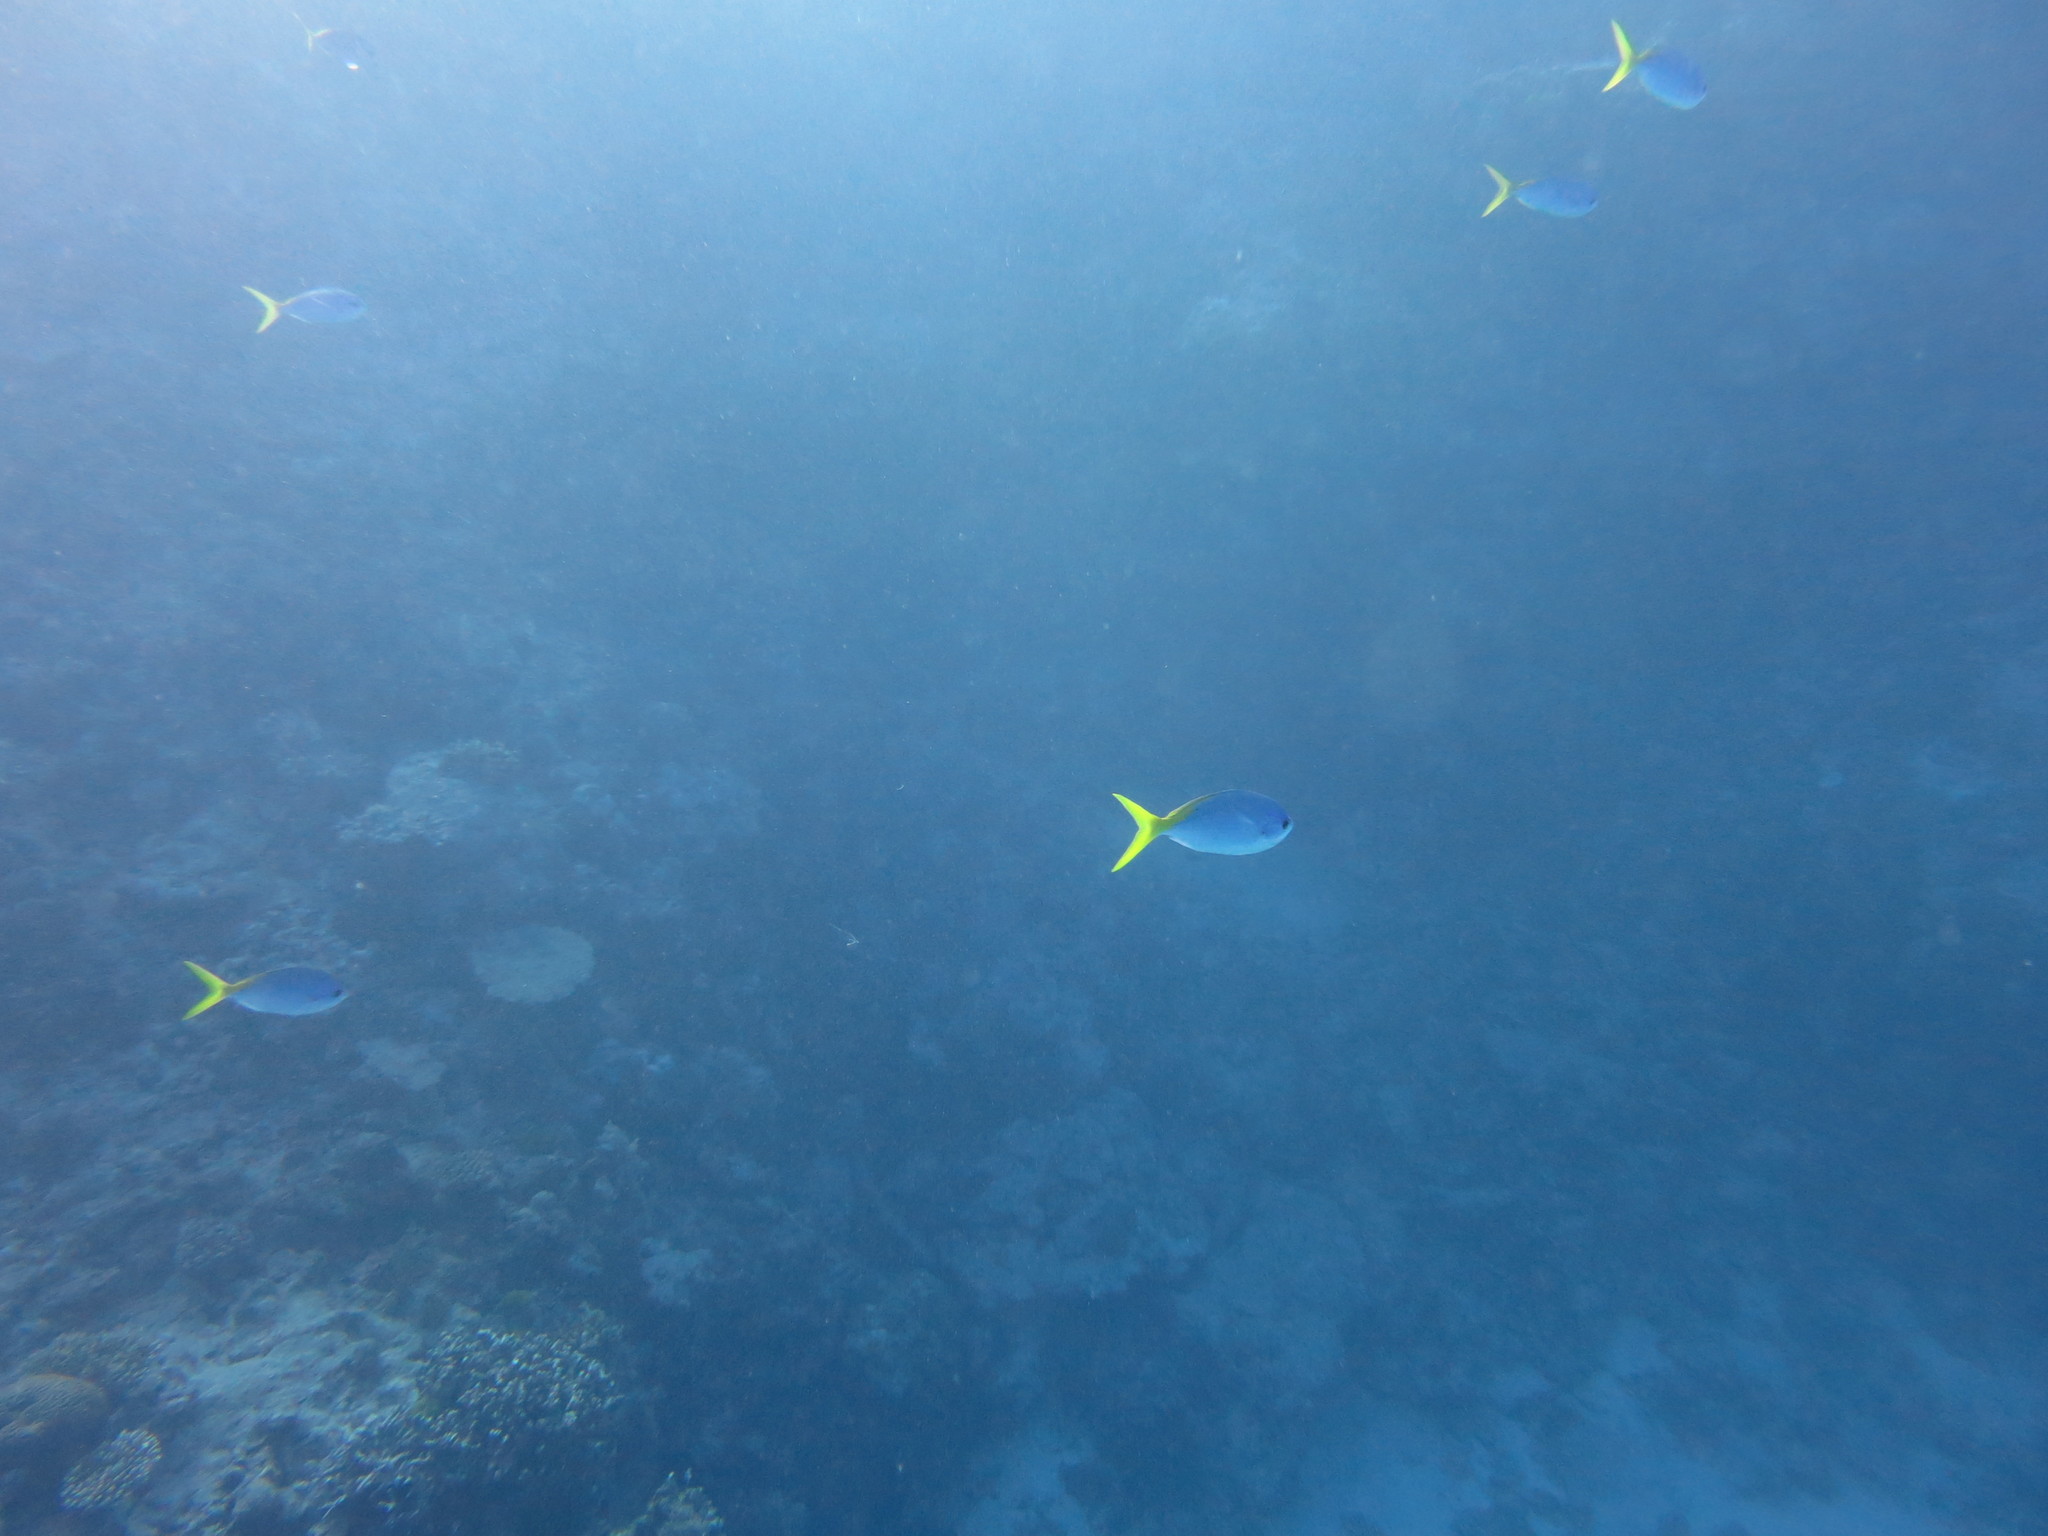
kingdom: Animalia
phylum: Chordata
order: Perciformes
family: Caesionidae
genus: Caesio
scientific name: Caesio teres
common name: Yellow and blueback fusilier
